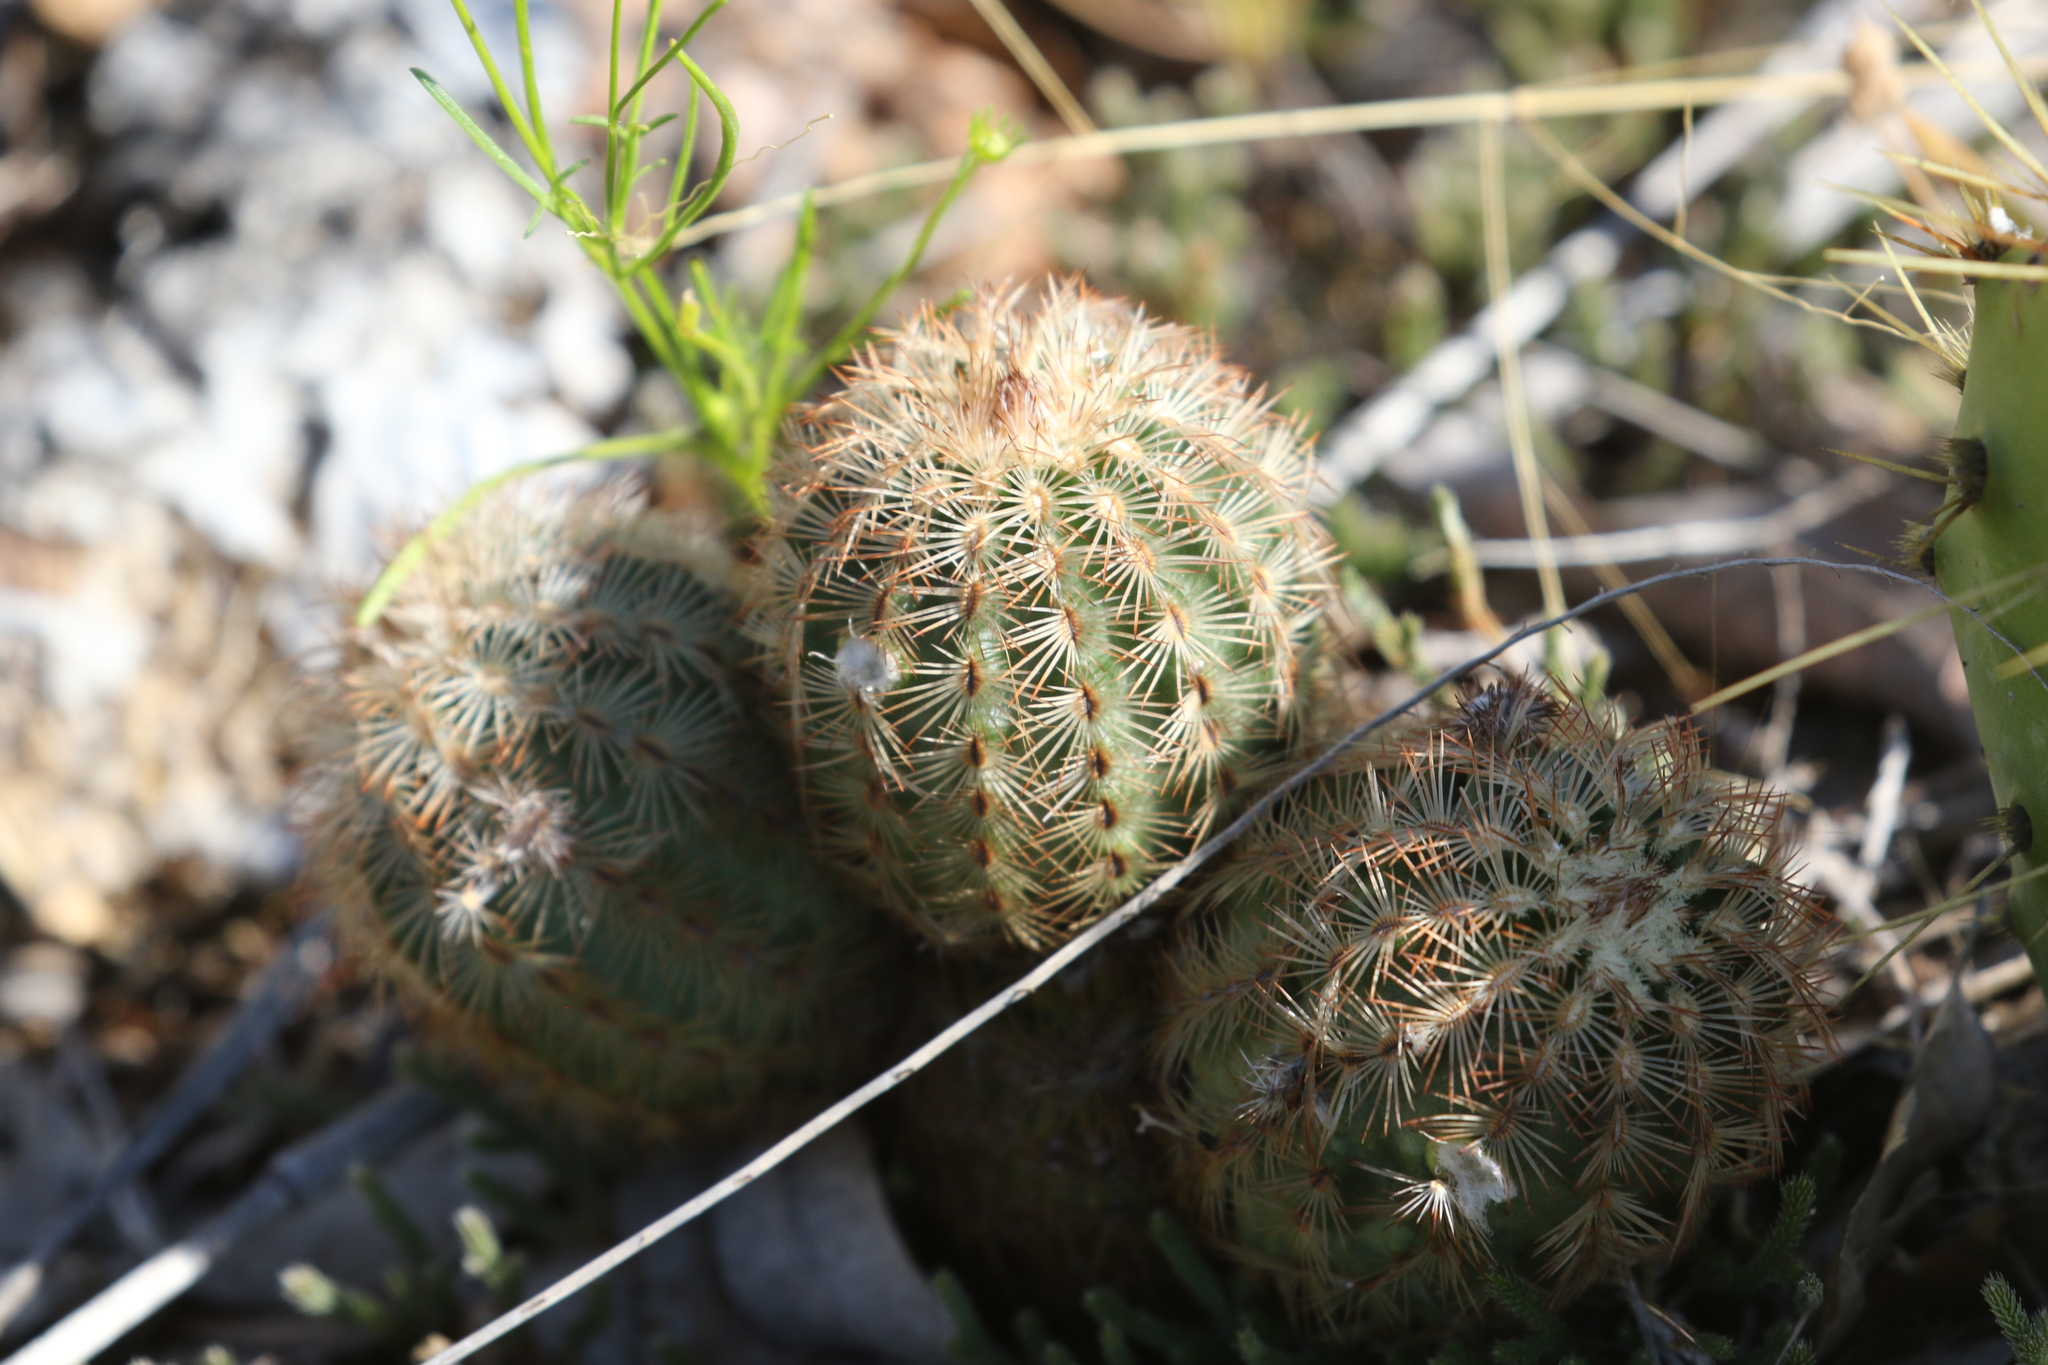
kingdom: Plantae
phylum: Tracheophyta
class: Magnoliopsida
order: Caryophyllales
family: Cactaceae
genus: Echinocereus
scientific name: Echinocereus reichenbachii
